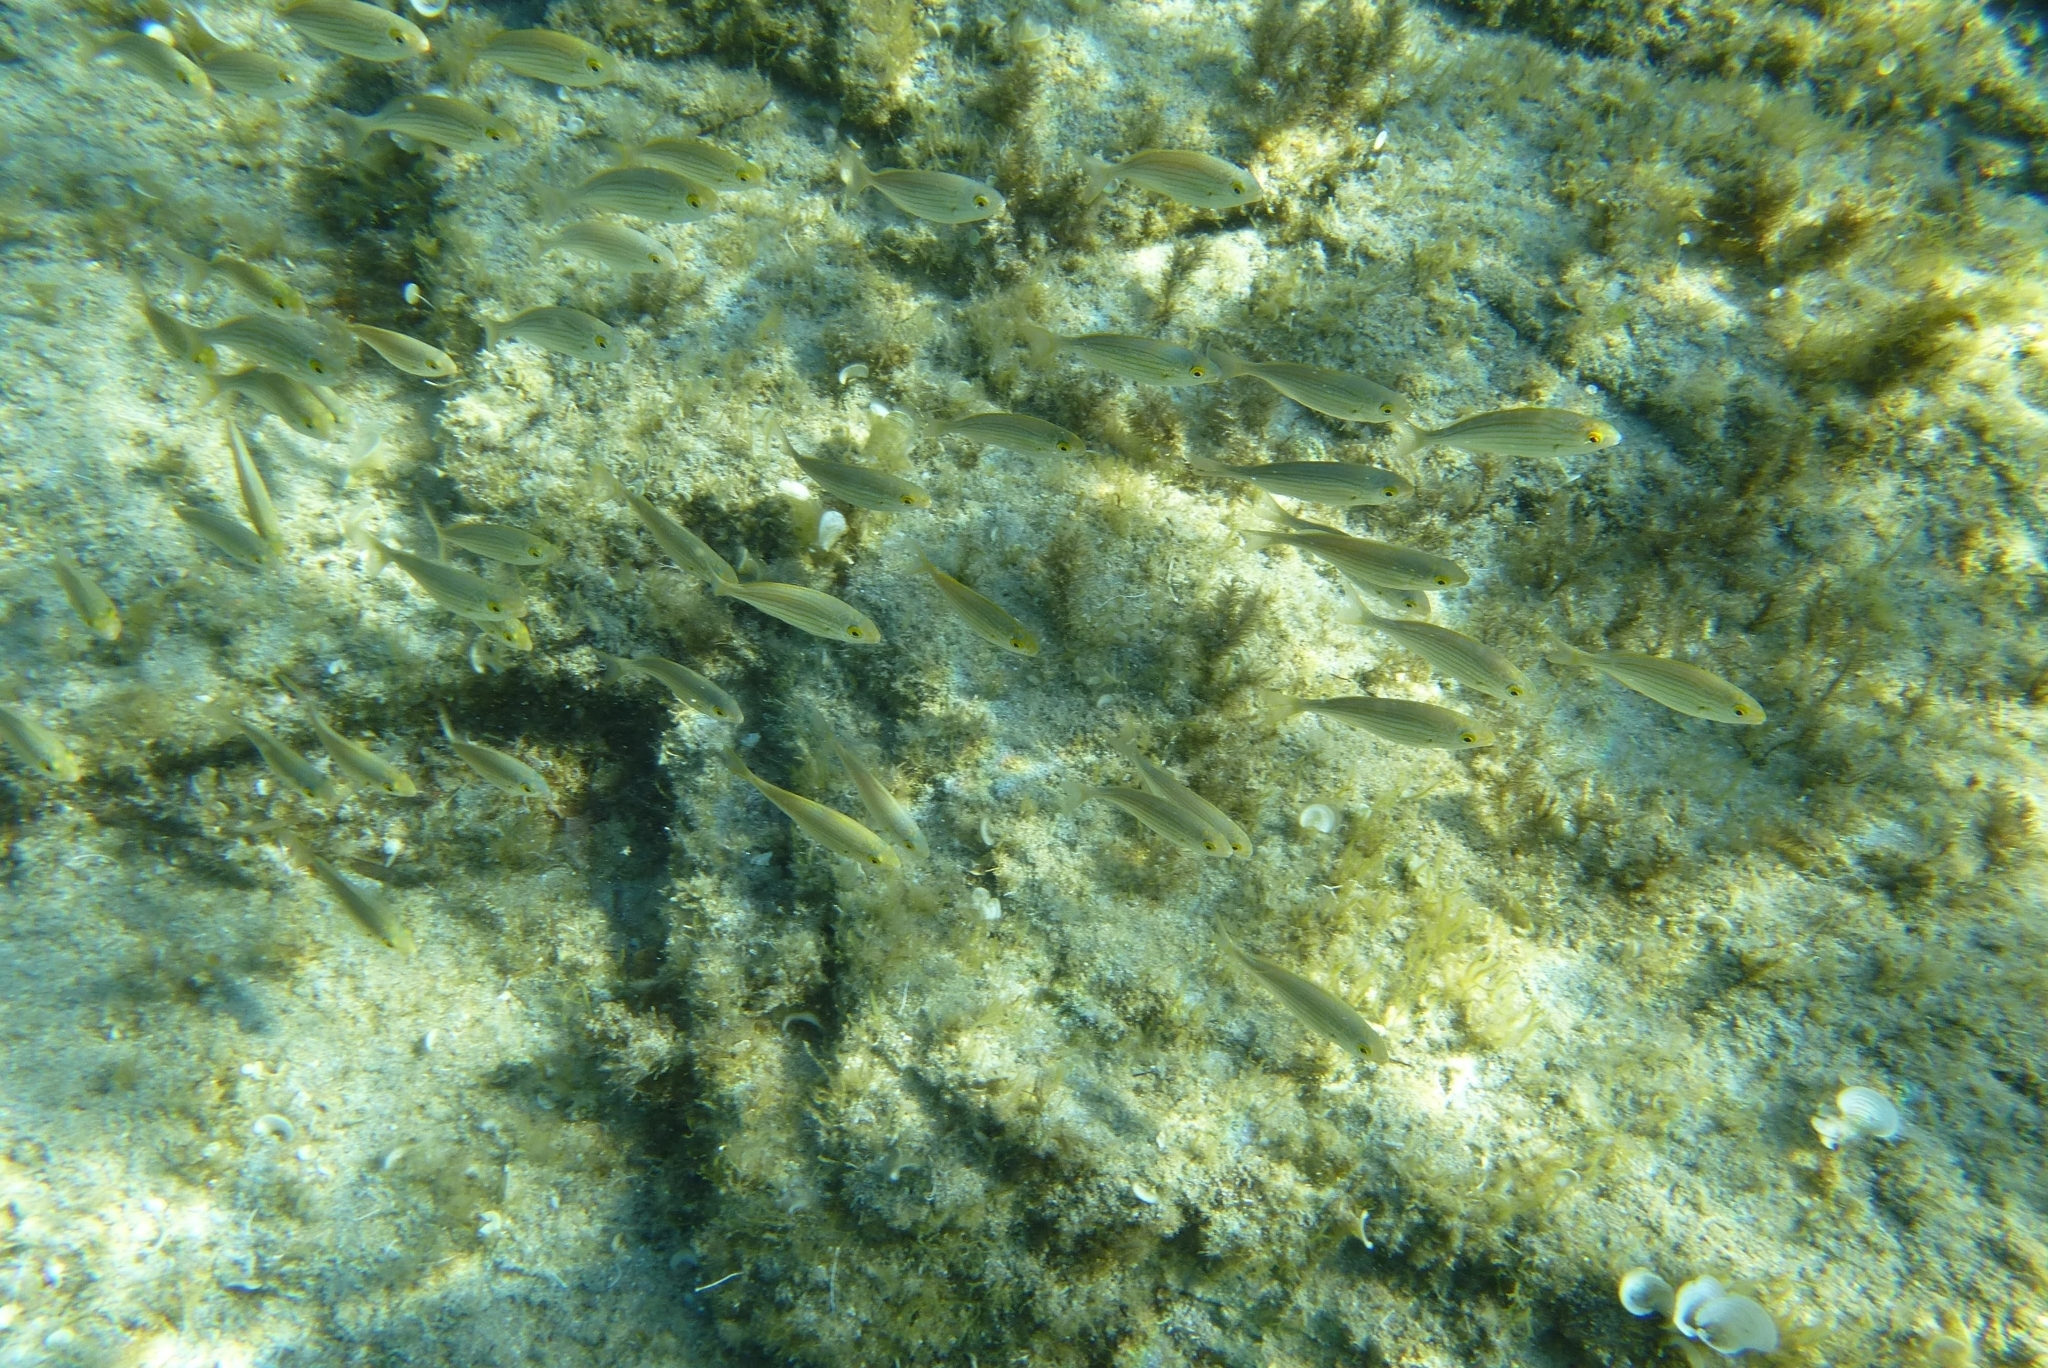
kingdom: Animalia
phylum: Chordata
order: Perciformes
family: Sparidae
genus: Sarpa
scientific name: Sarpa salpa
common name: Salema
